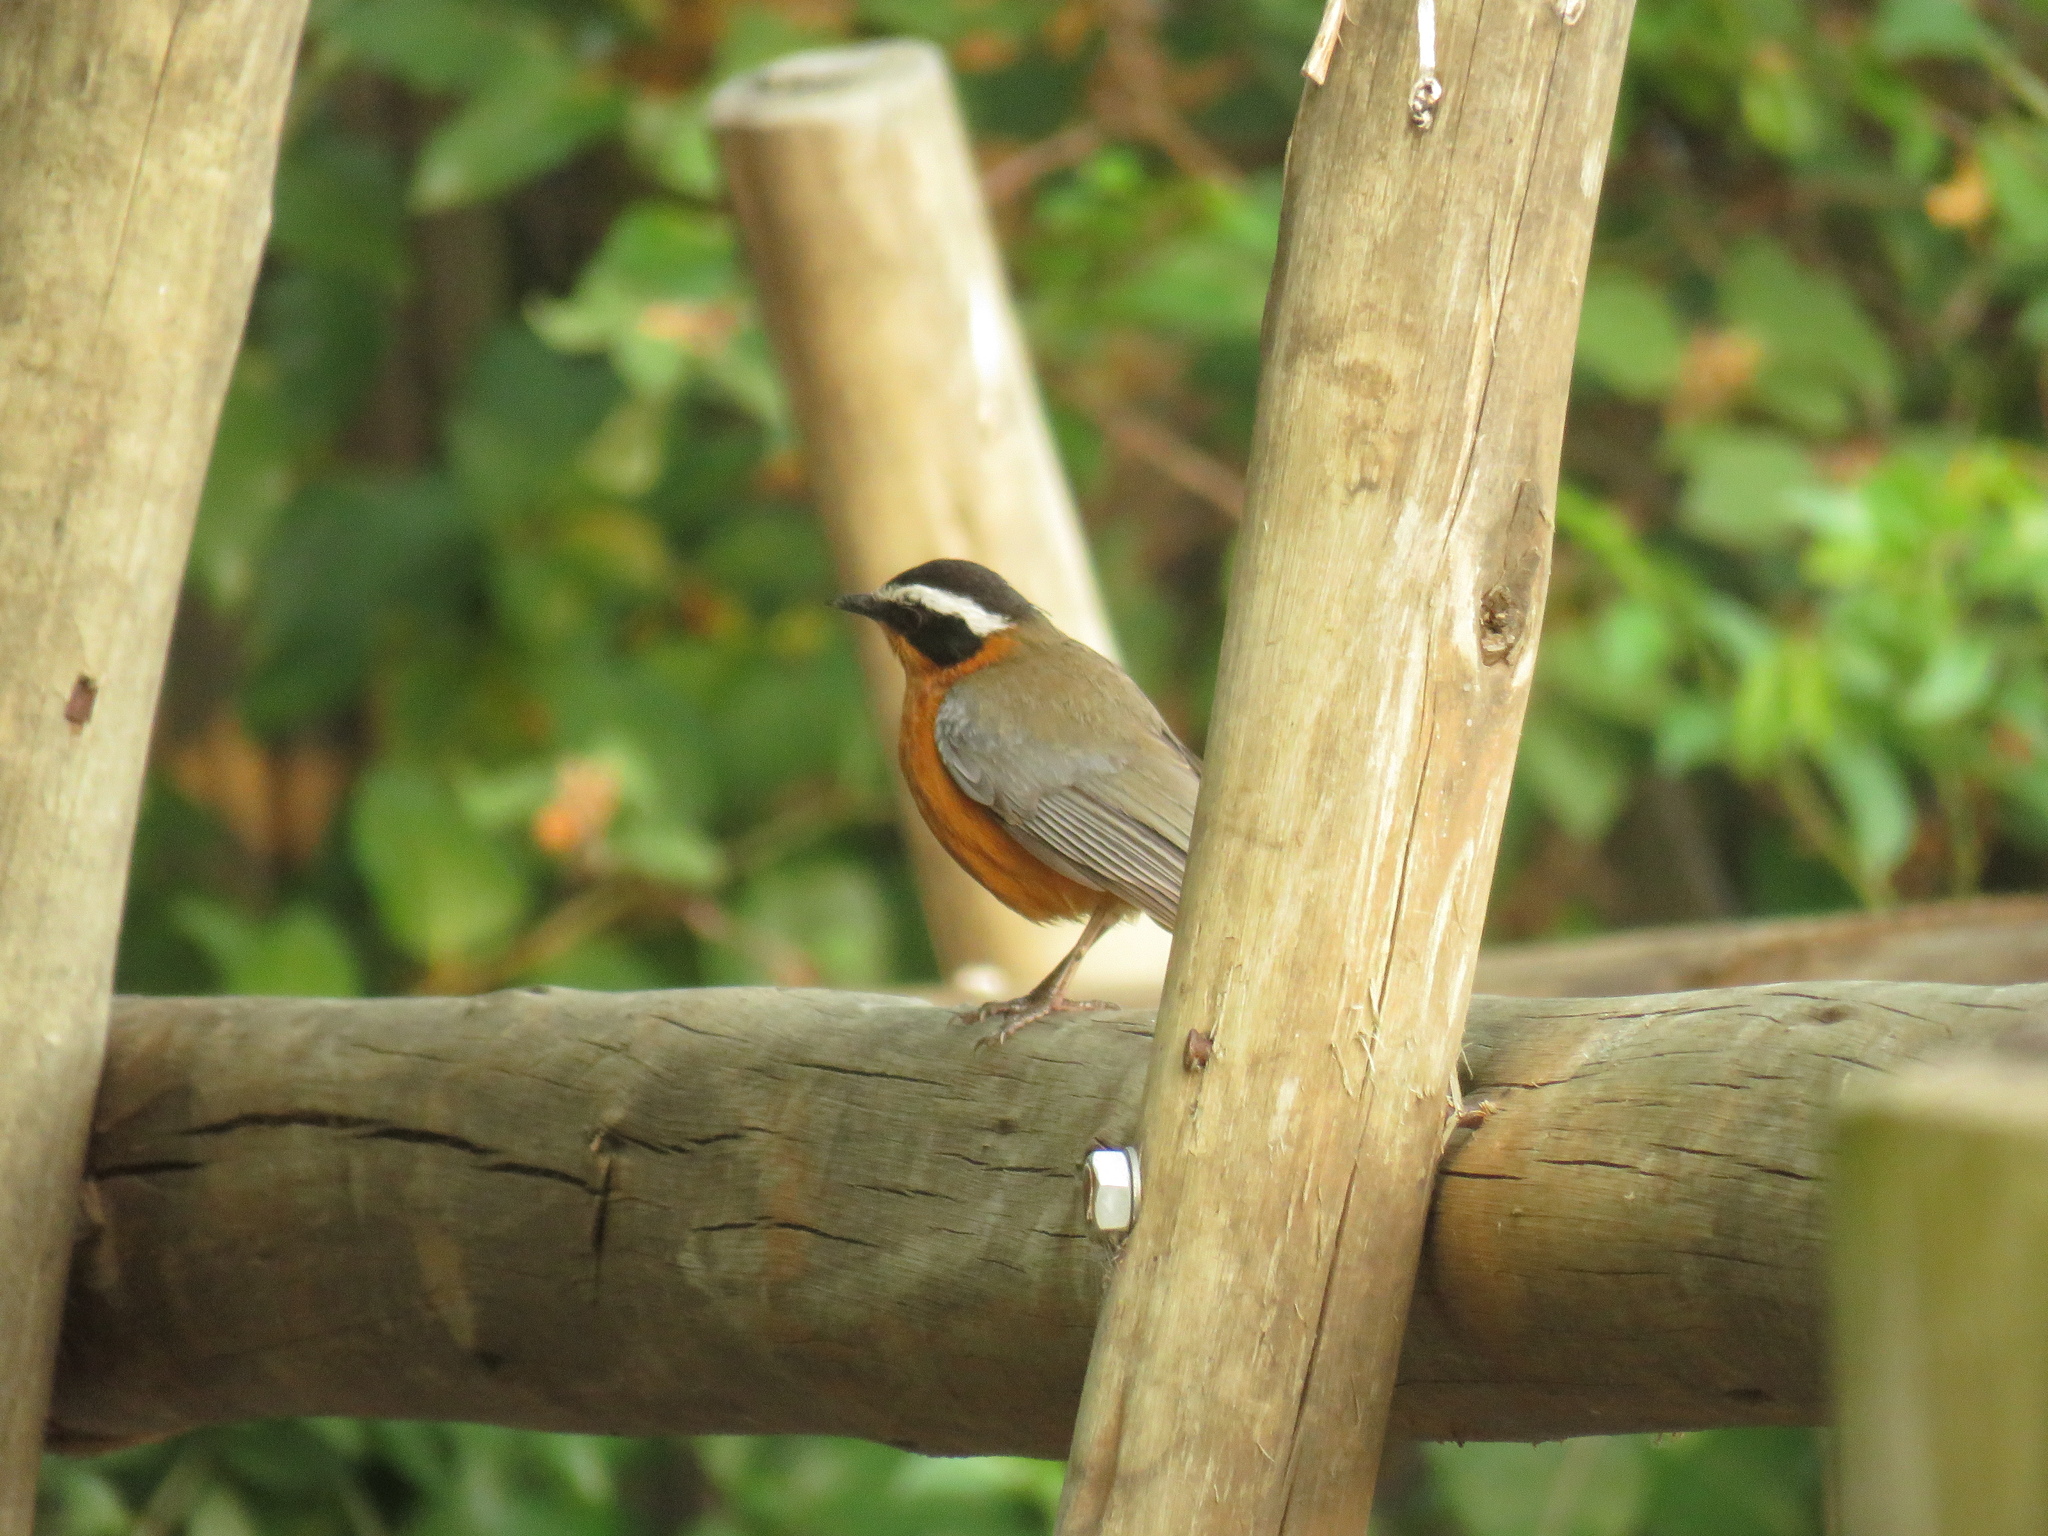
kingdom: Animalia
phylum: Chordata
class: Aves
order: Passeriformes
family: Muscicapidae
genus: Cossypha
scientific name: Cossypha heuglini
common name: White-browed robin-chat
